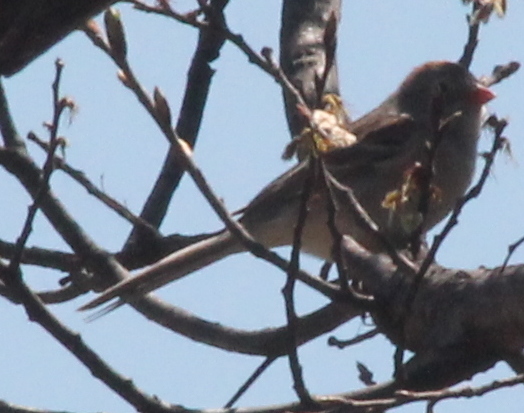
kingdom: Animalia
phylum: Chordata
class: Aves
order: Passeriformes
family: Passerellidae
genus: Spizella
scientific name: Spizella pusilla
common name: Field sparrow
